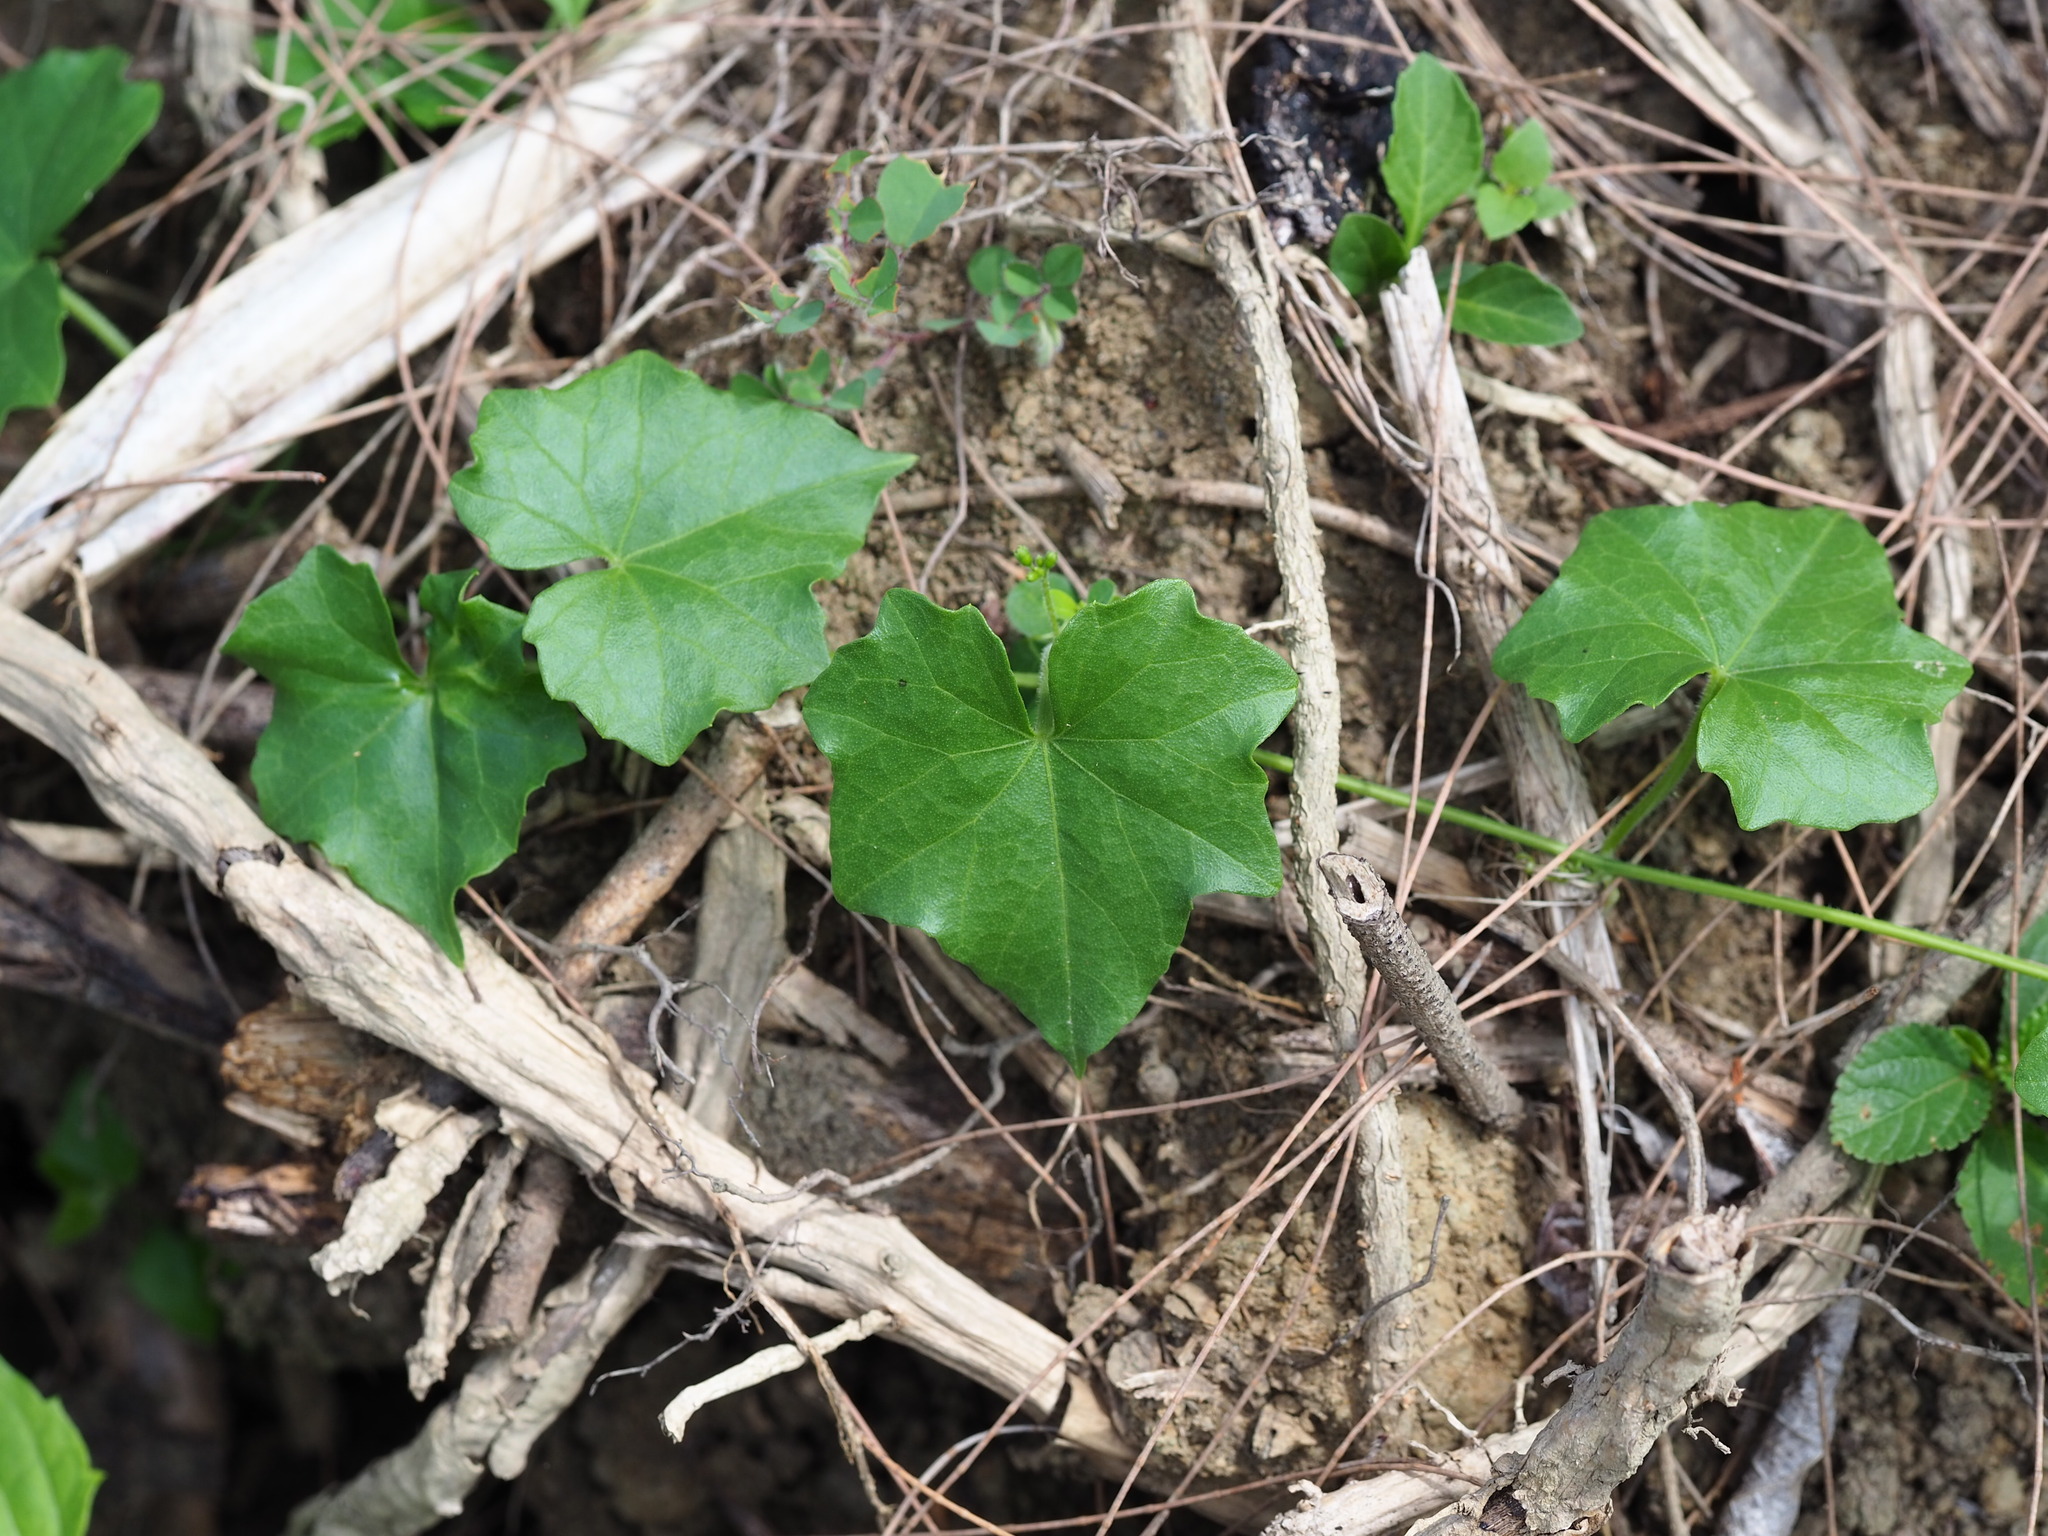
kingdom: Plantae
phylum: Tracheophyta
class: Magnoliopsida
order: Cucurbitales
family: Cucurbitaceae
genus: Melothria
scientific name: Melothria pendula
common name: Creeping-cucumber
